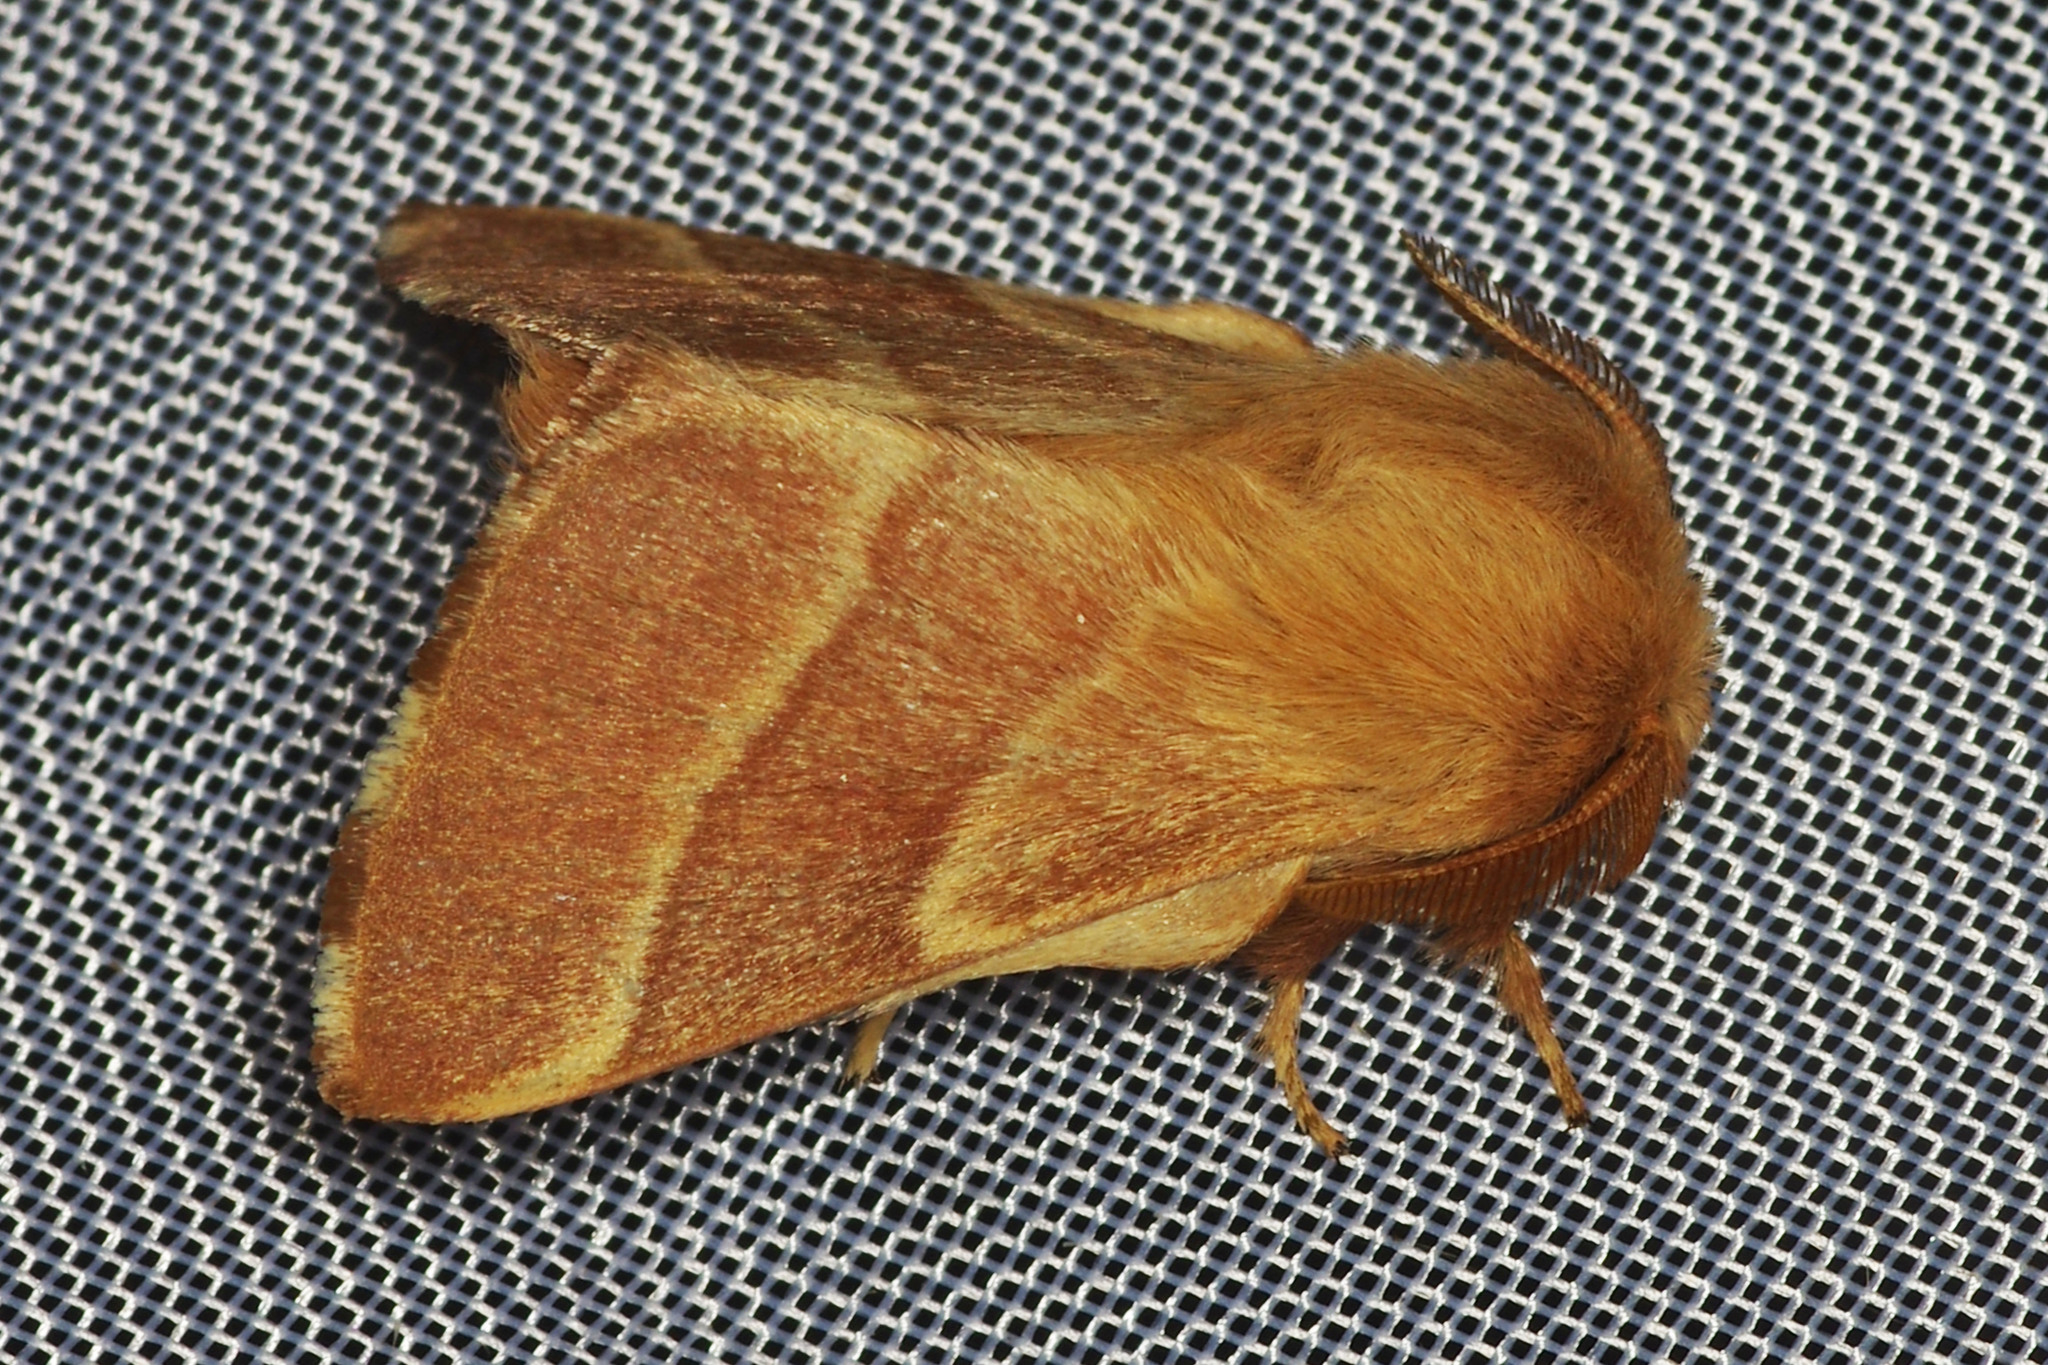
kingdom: Animalia
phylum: Arthropoda
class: Insecta
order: Lepidoptera
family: Lasiocampidae
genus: Malacosoma
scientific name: Malacosoma neustria
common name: The lackey
